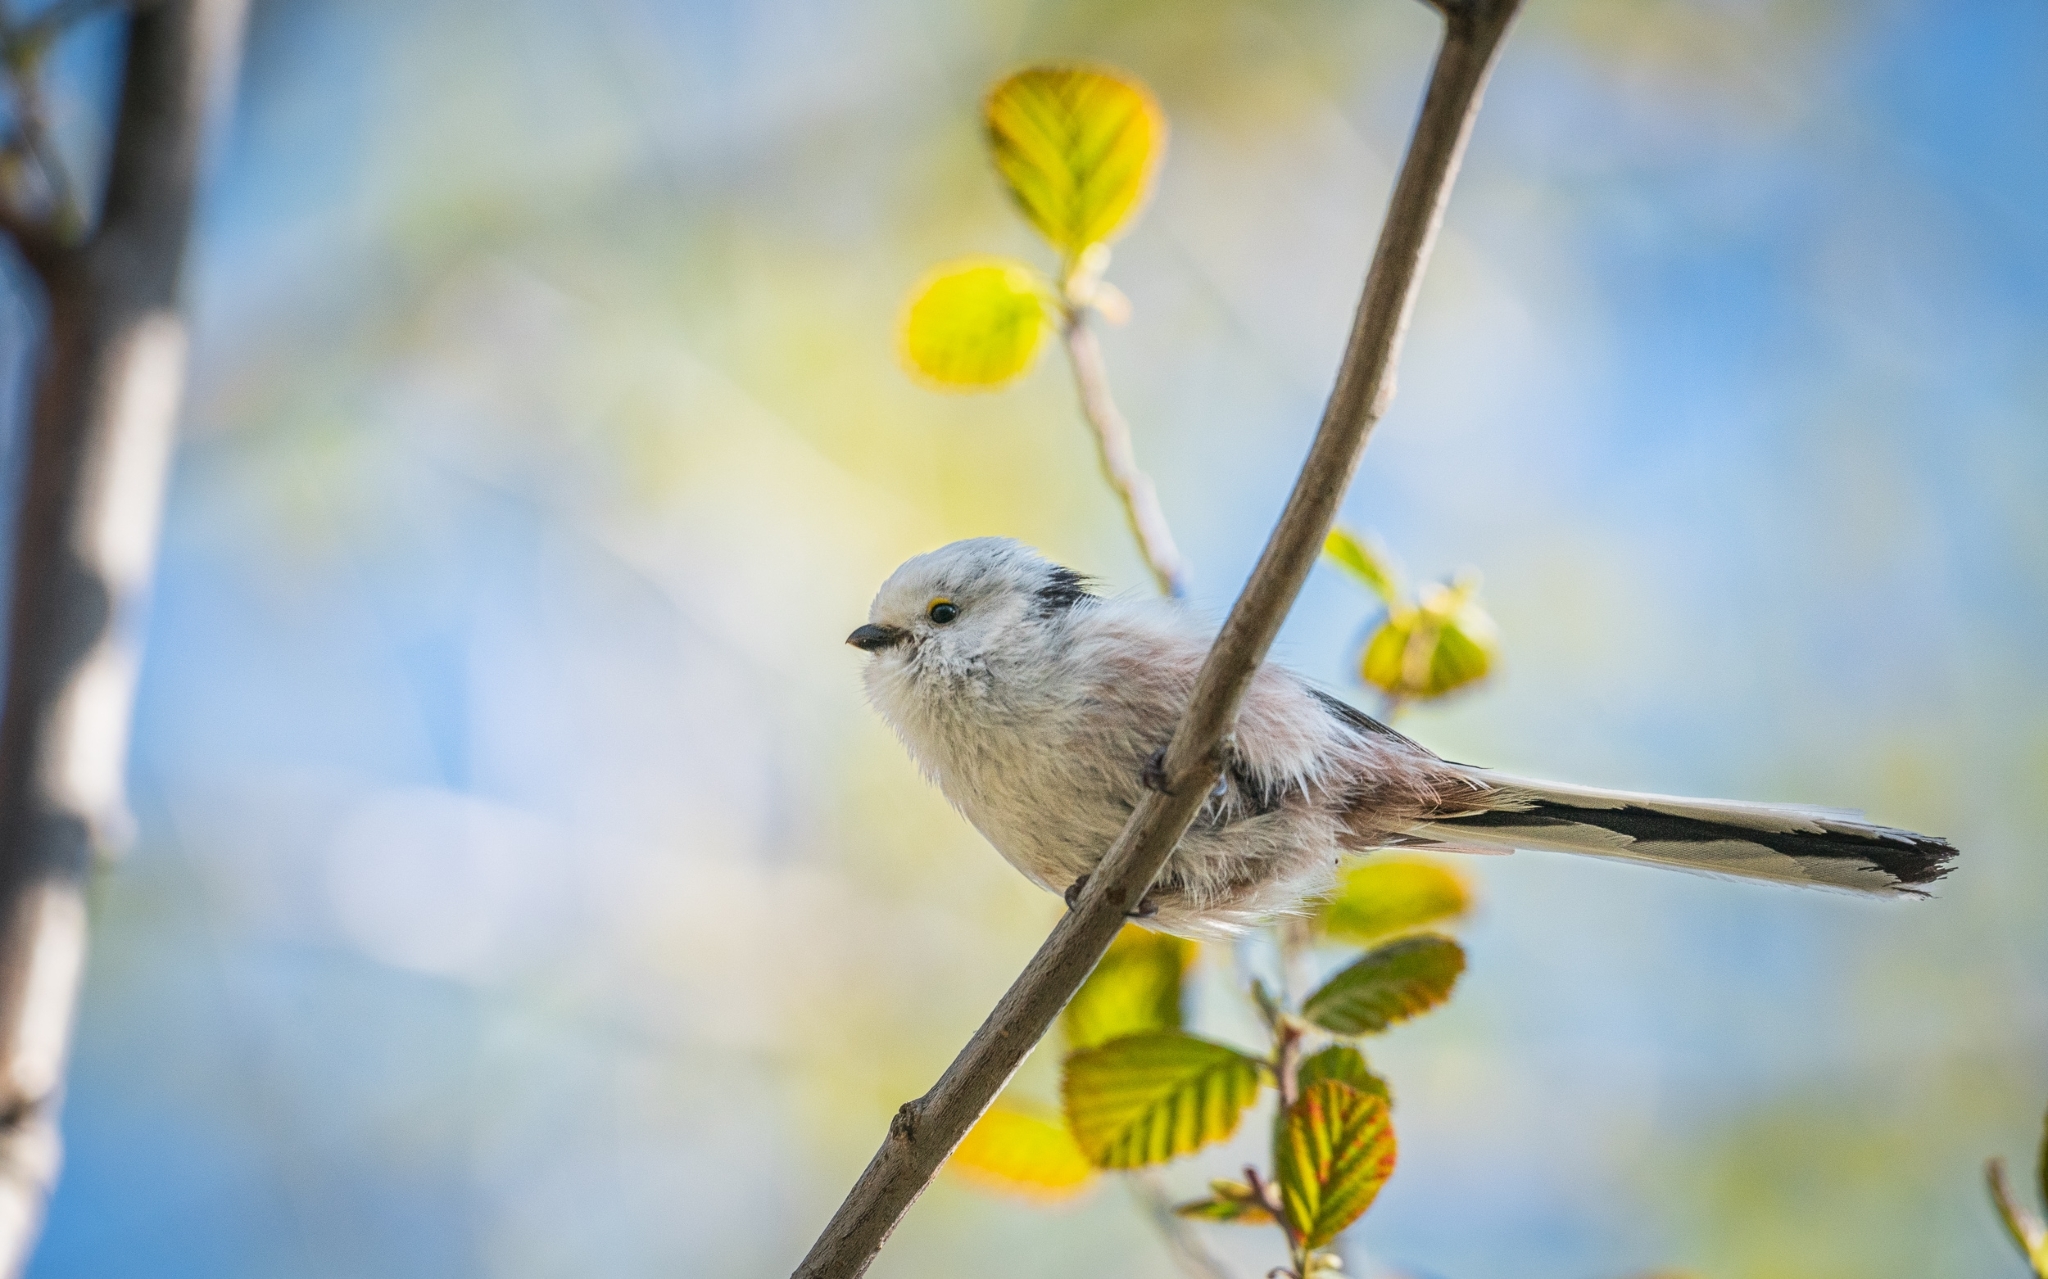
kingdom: Animalia
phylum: Chordata
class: Aves
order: Passeriformes
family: Aegithalidae
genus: Aegithalos
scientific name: Aegithalos caudatus
